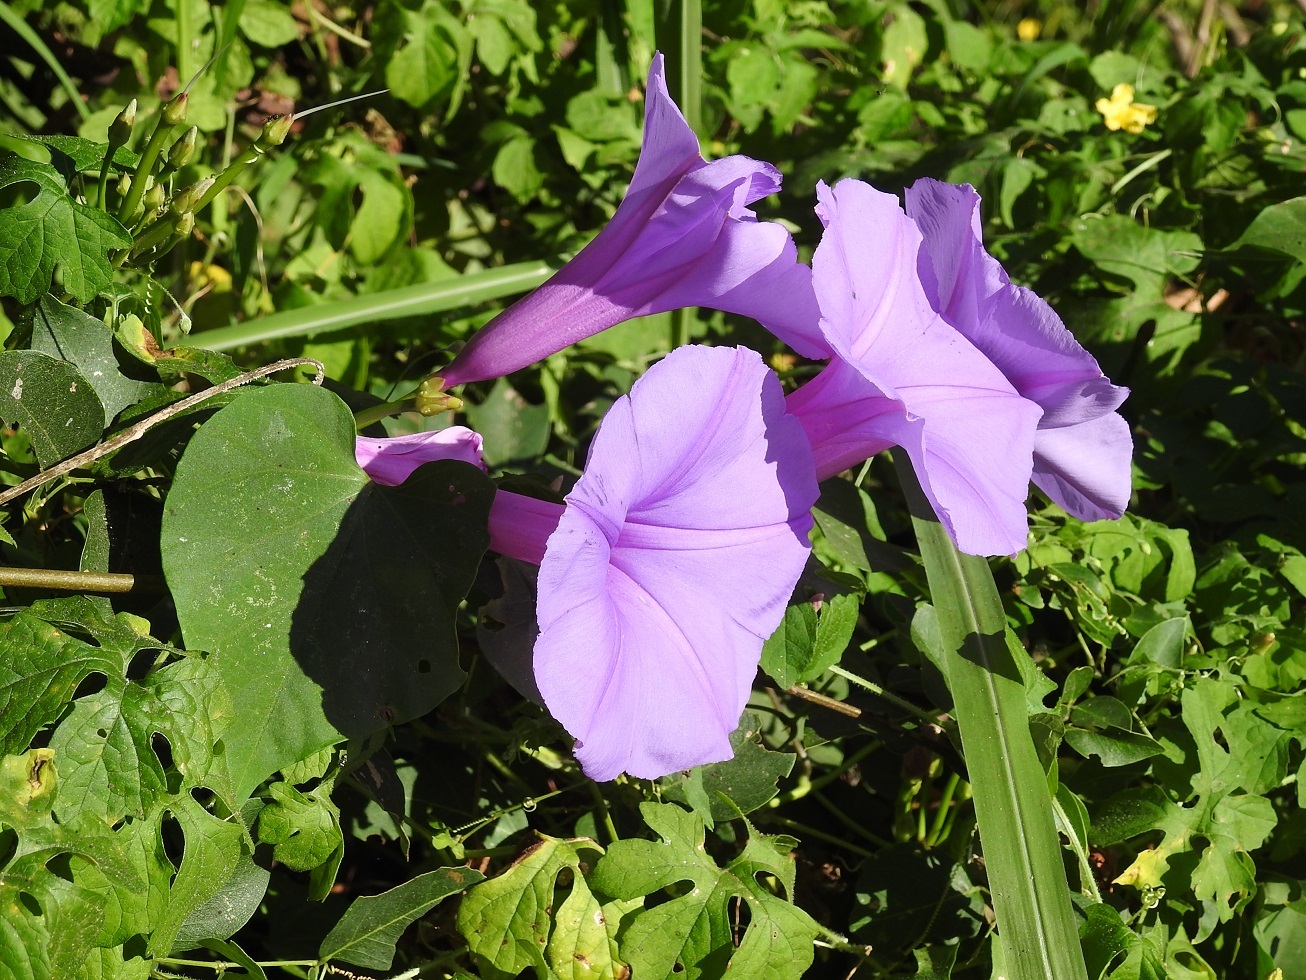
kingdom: Plantae
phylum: Tracheophyta
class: Magnoliopsida
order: Solanales
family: Convolvulaceae
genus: Ipomoea
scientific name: Ipomoea pedicellaris
